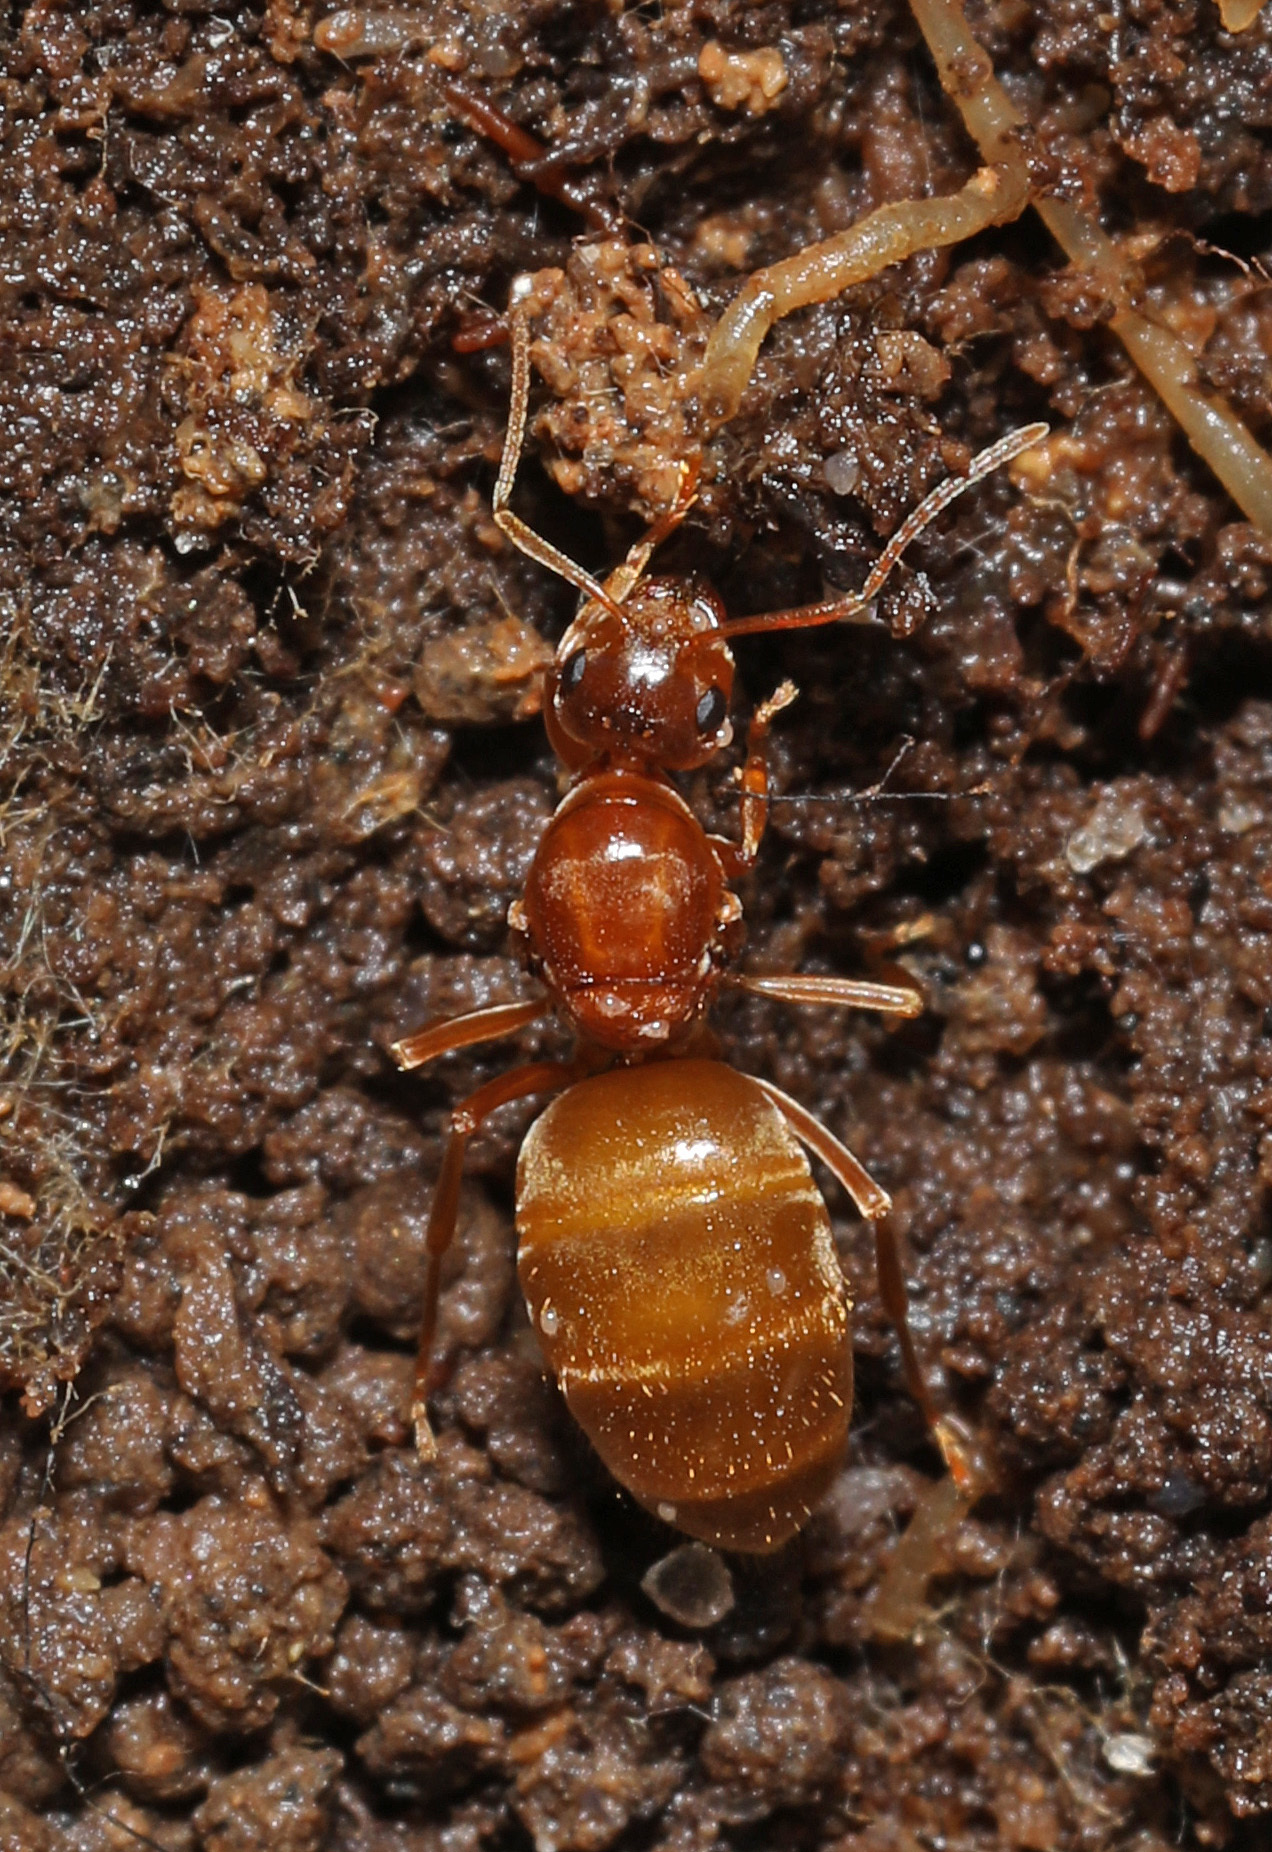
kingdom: Animalia
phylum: Arthropoda
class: Insecta
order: Hymenoptera
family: Formicidae
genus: Prenolepis
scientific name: Prenolepis imparis
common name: Small honey ant
